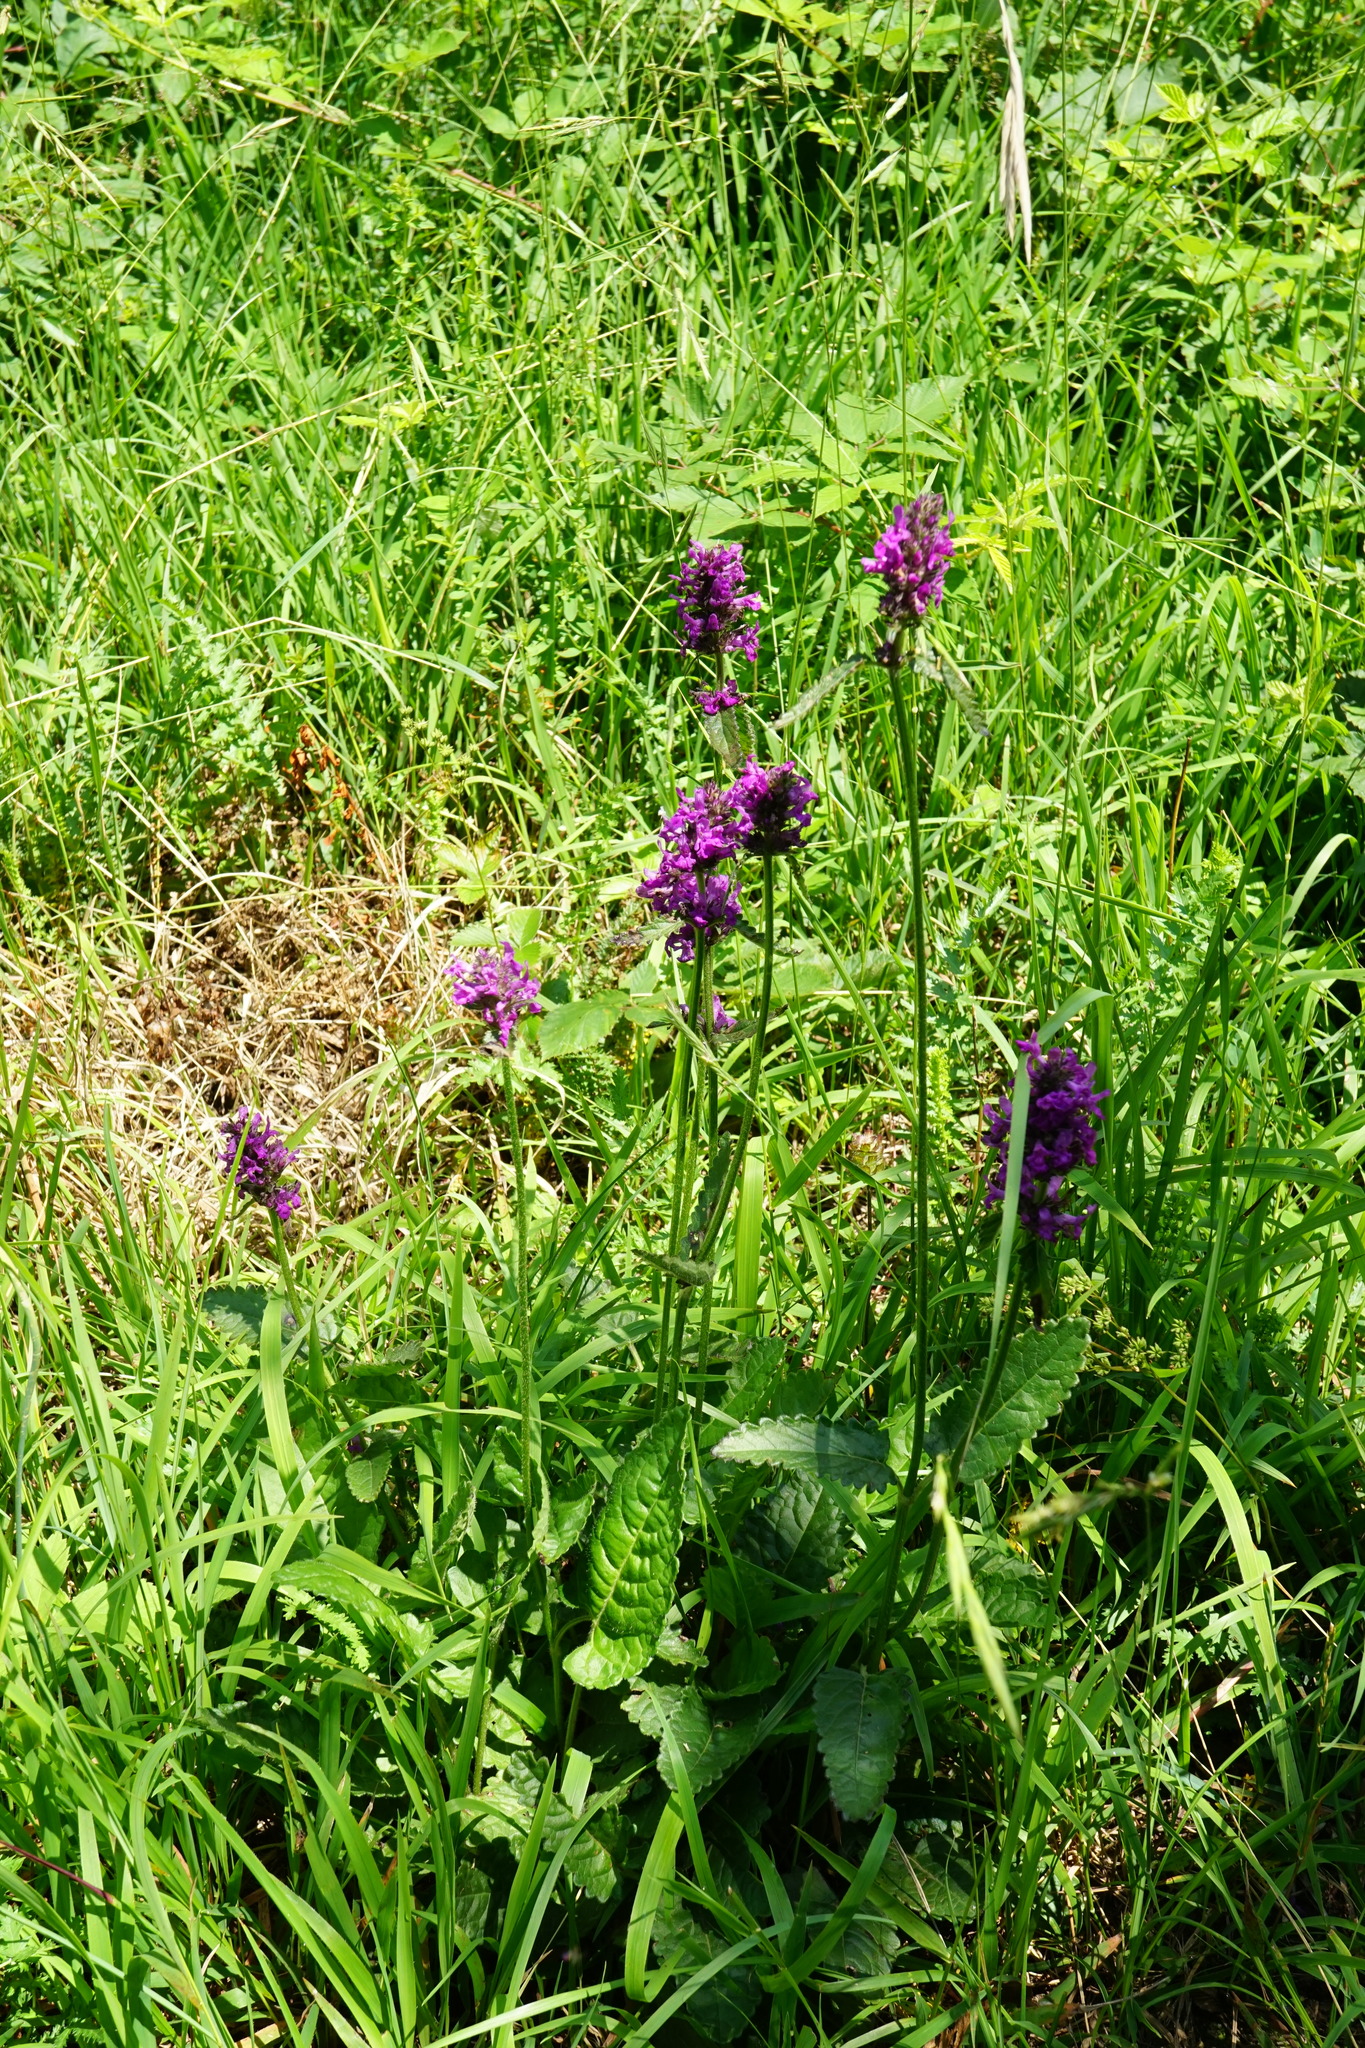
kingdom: Plantae
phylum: Tracheophyta
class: Magnoliopsida
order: Lamiales
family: Lamiaceae
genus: Betonica
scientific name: Betonica officinalis
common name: Bishop's-wort
